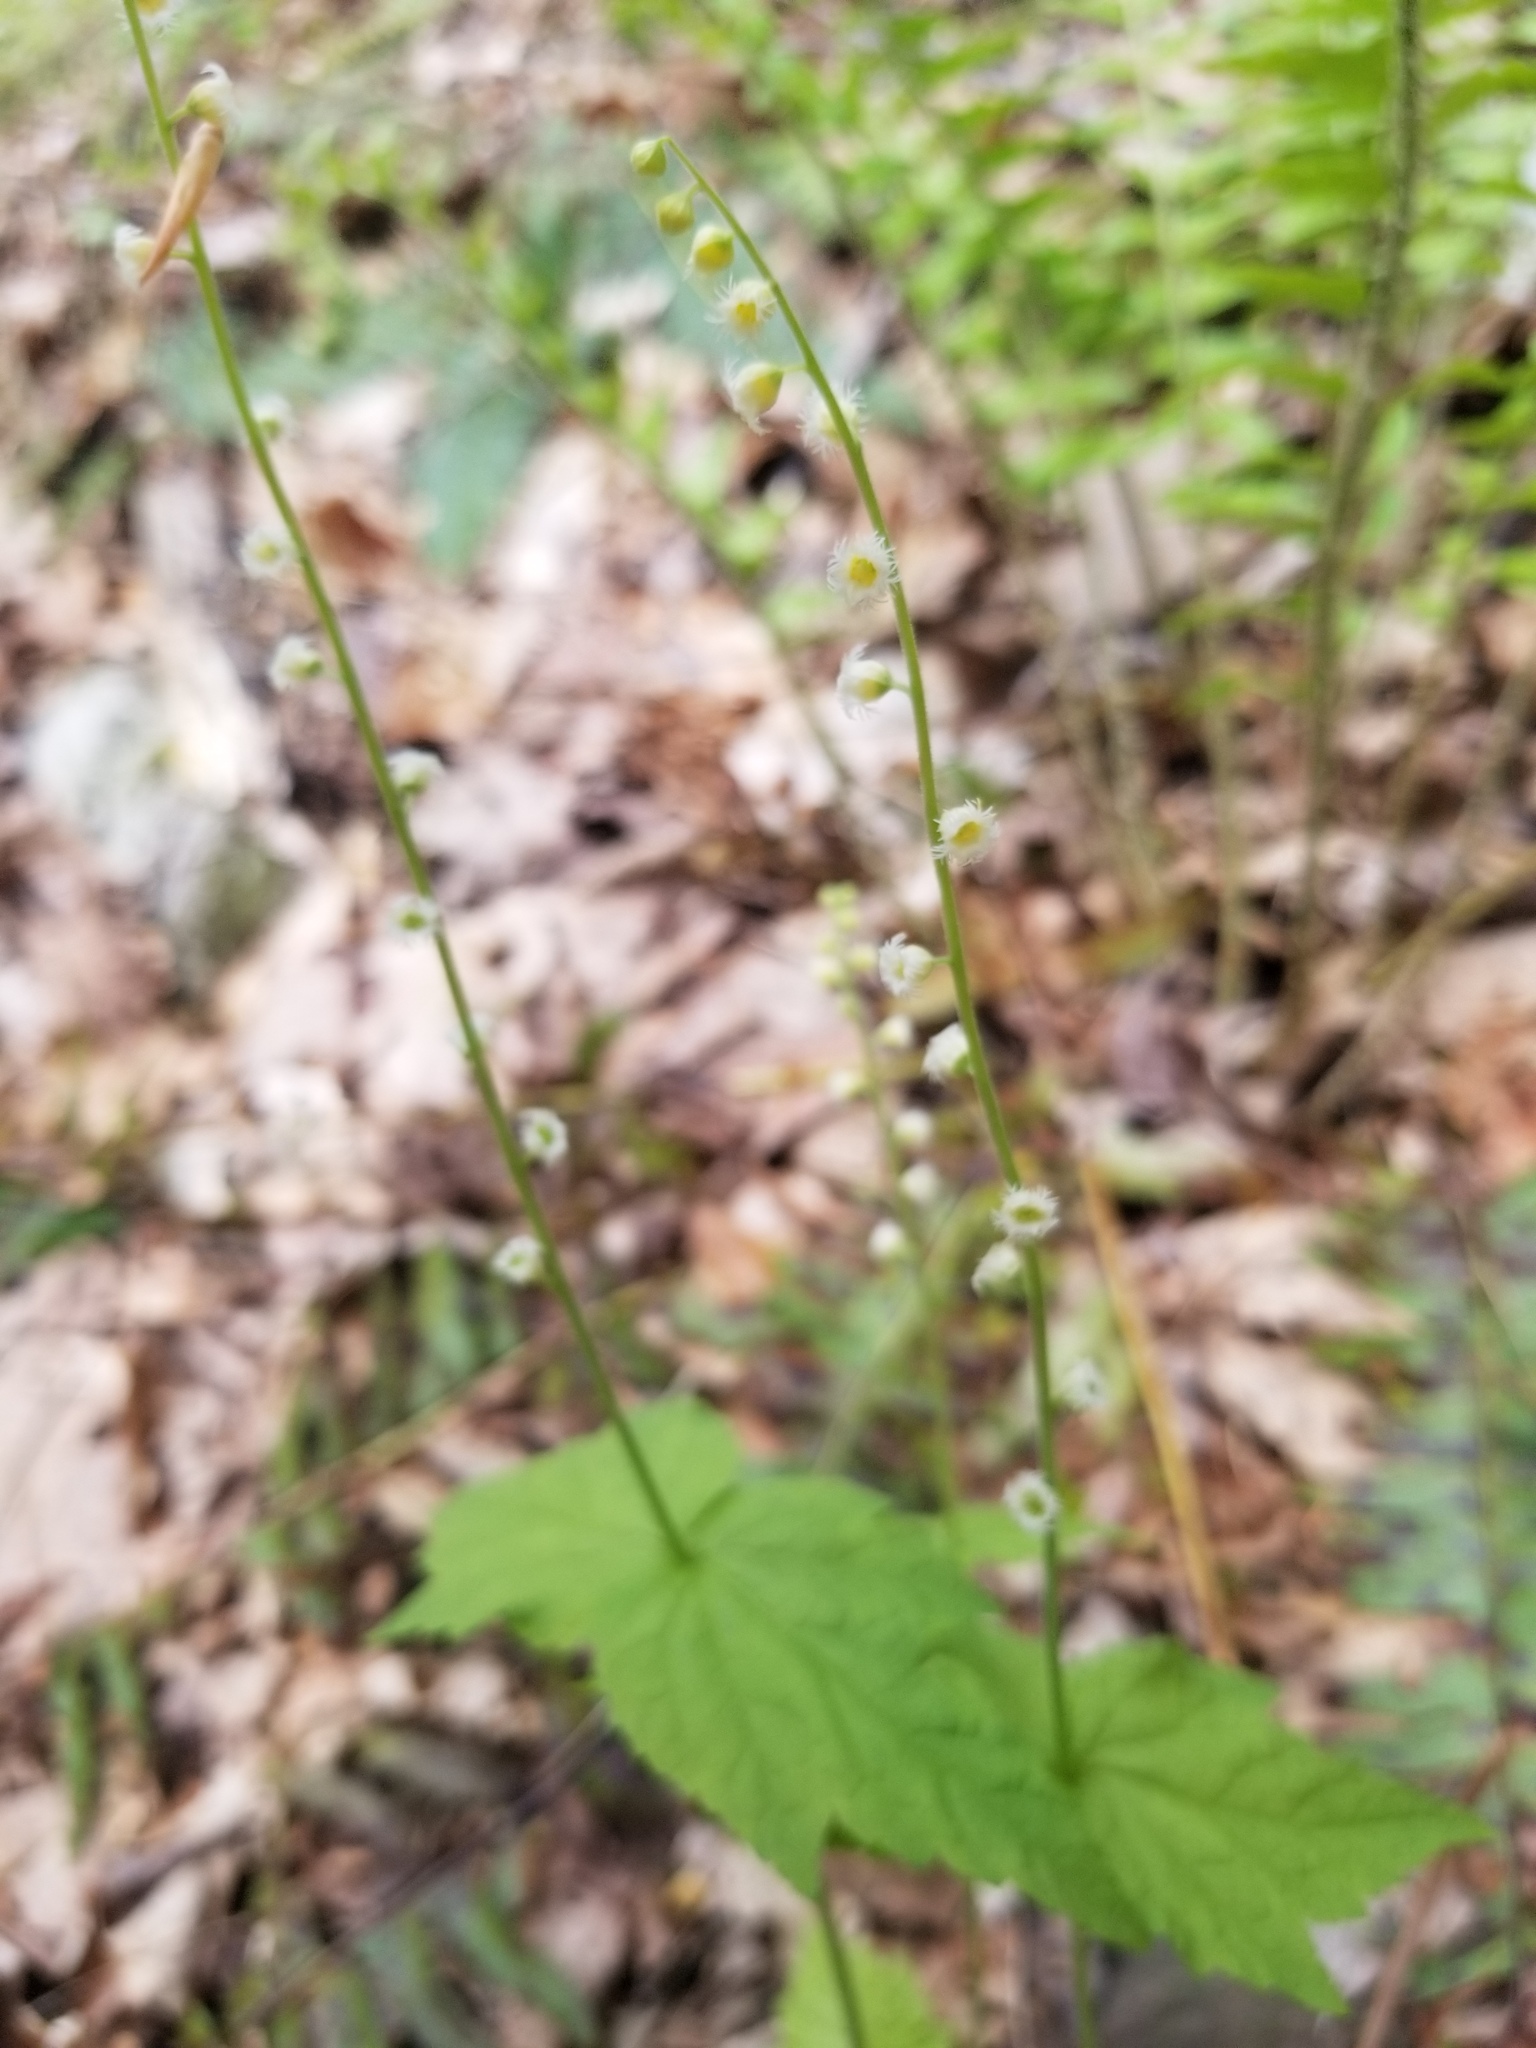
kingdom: Plantae
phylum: Tracheophyta
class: Magnoliopsida
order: Saxifragales
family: Saxifragaceae
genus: Mitella
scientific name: Mitella diphylla
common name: Coolwort
